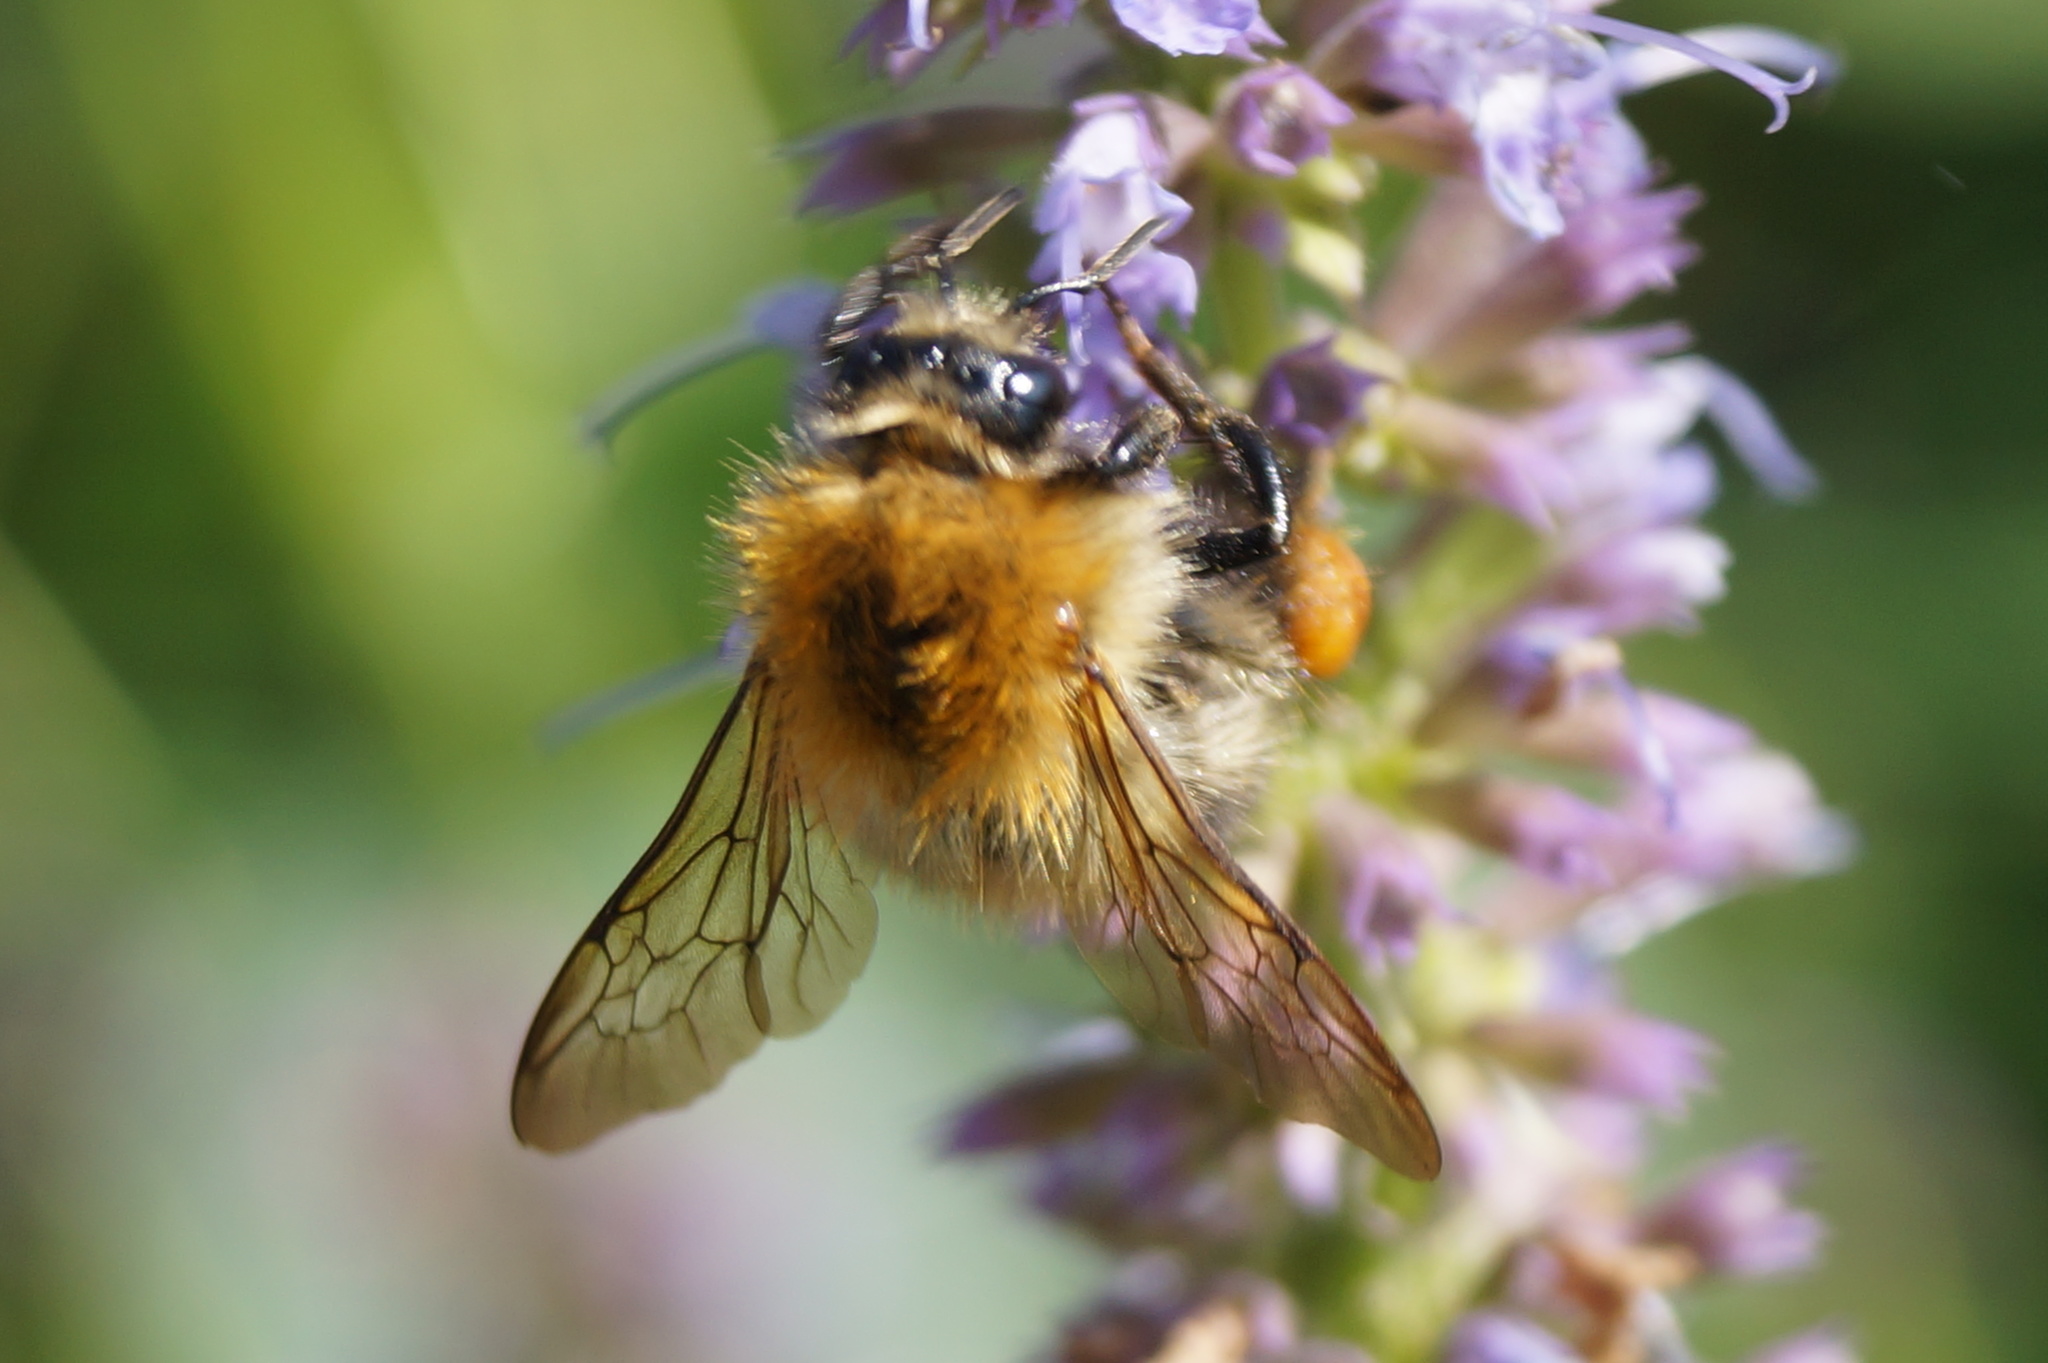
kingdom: Animalia
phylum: Arthropoda
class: Insecta
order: Hymenoptera
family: Apidae
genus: Bombus
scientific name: Bombus pascuorum
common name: Common carder bee
